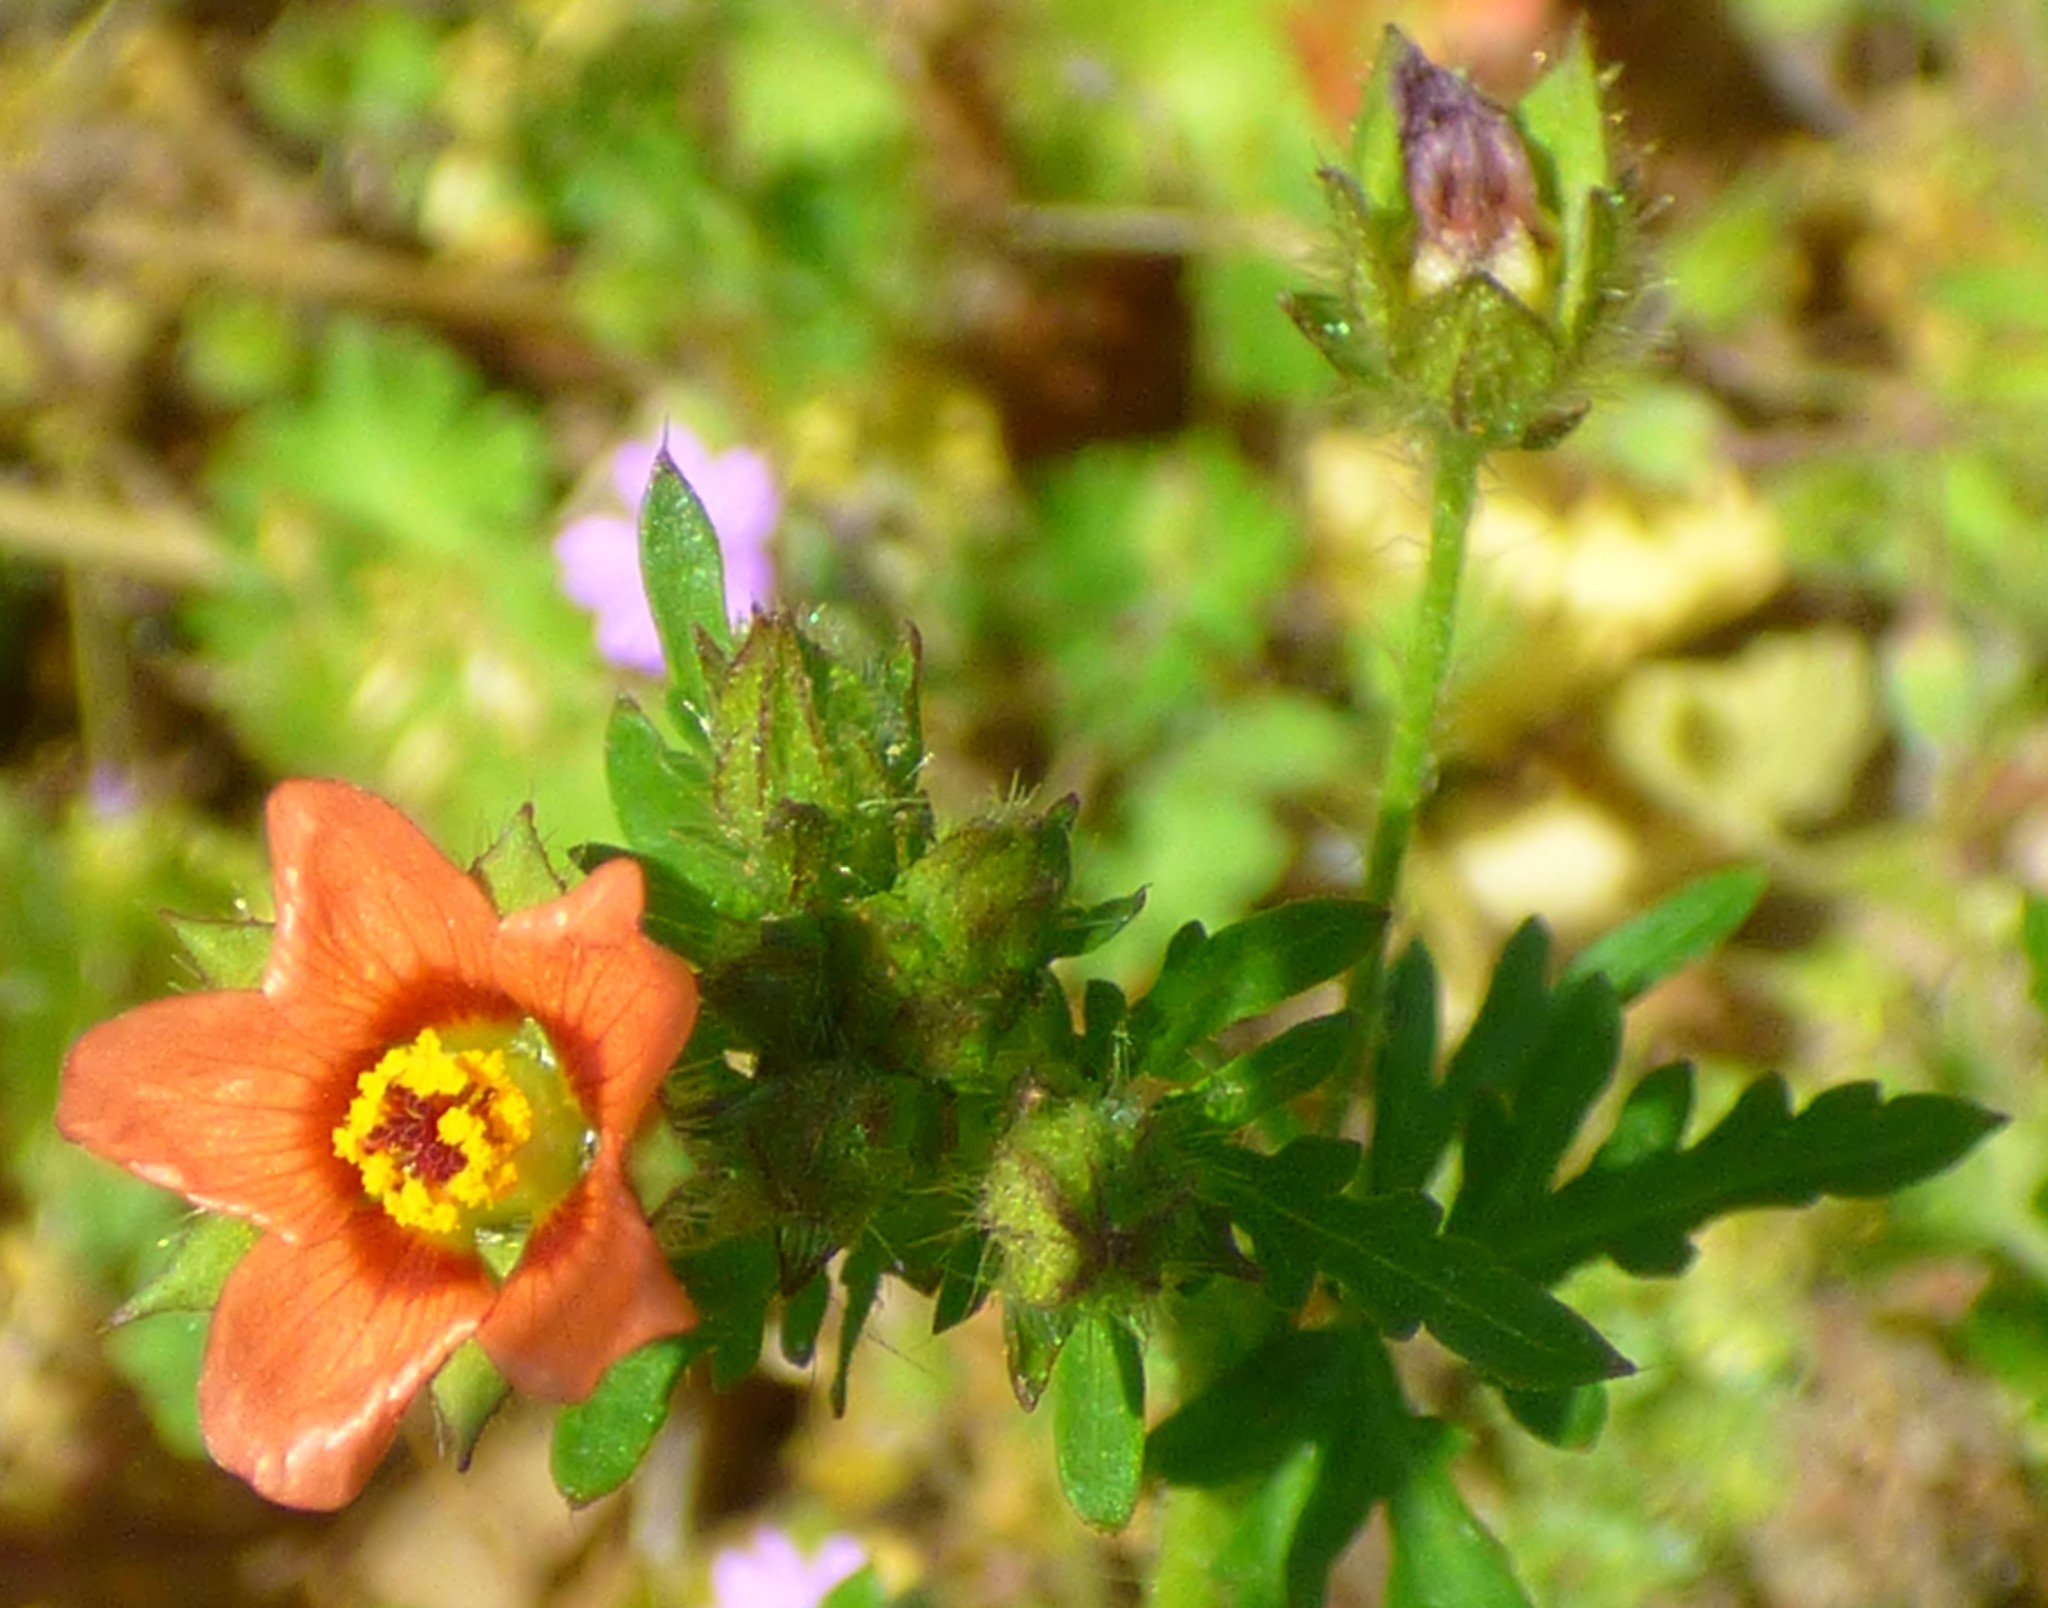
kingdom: Plantae
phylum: Tracheophyta
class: Magnoliopsida
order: Malvales
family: Malvaceae
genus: Modiola
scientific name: Modiola caroliniana
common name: Carolina bristlemallow
